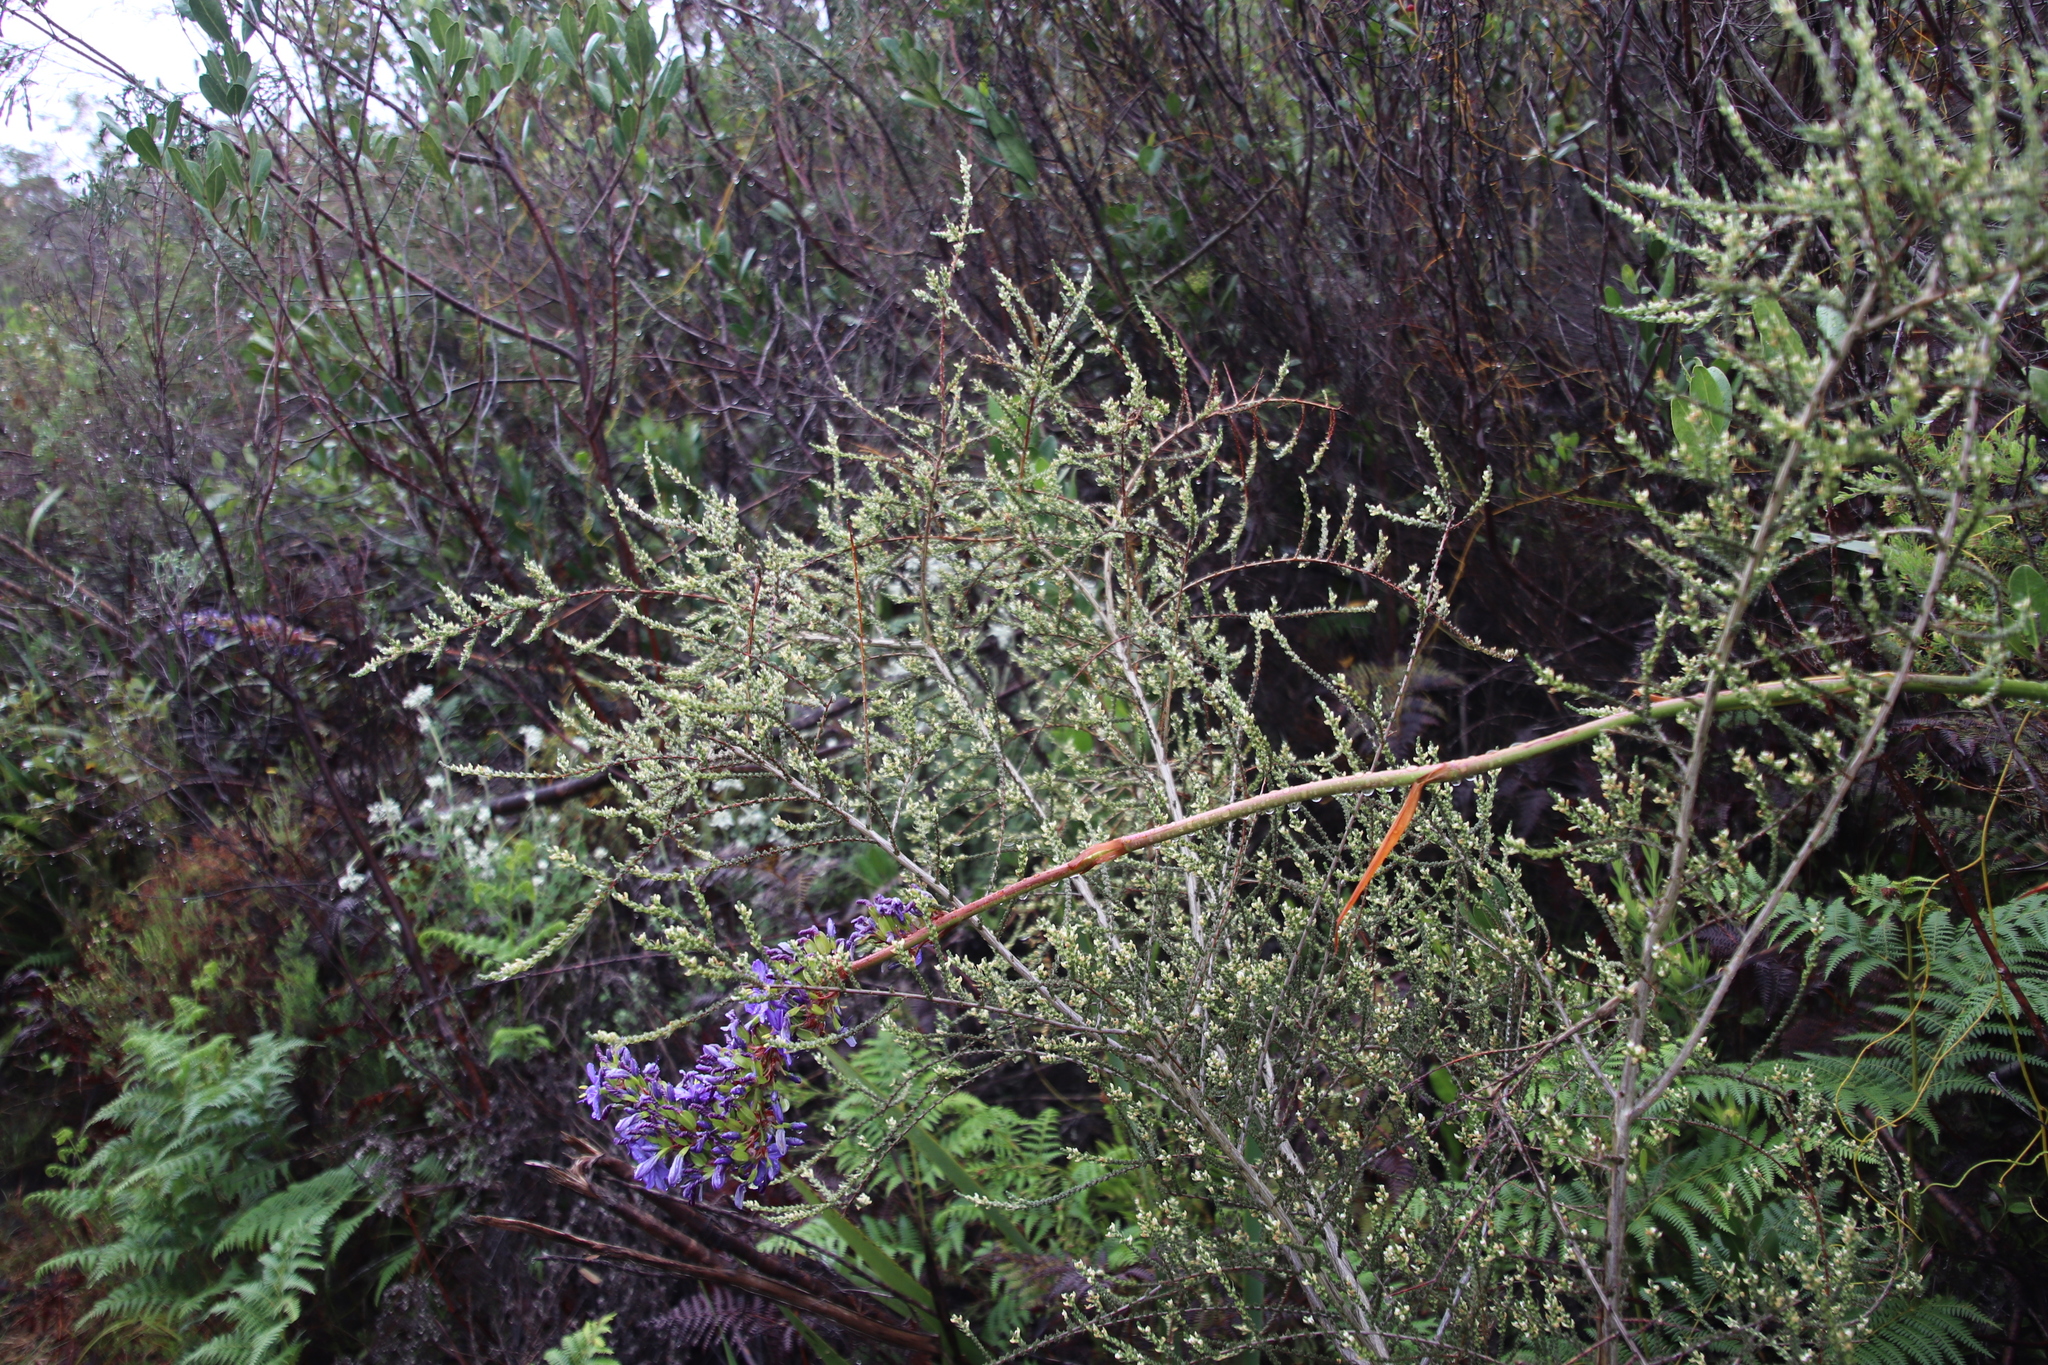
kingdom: Plantae
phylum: Tracheophyta
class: Magnoliopsida
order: Fabales
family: Fabaceae
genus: Aspalathus
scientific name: Aspalathus hispida
